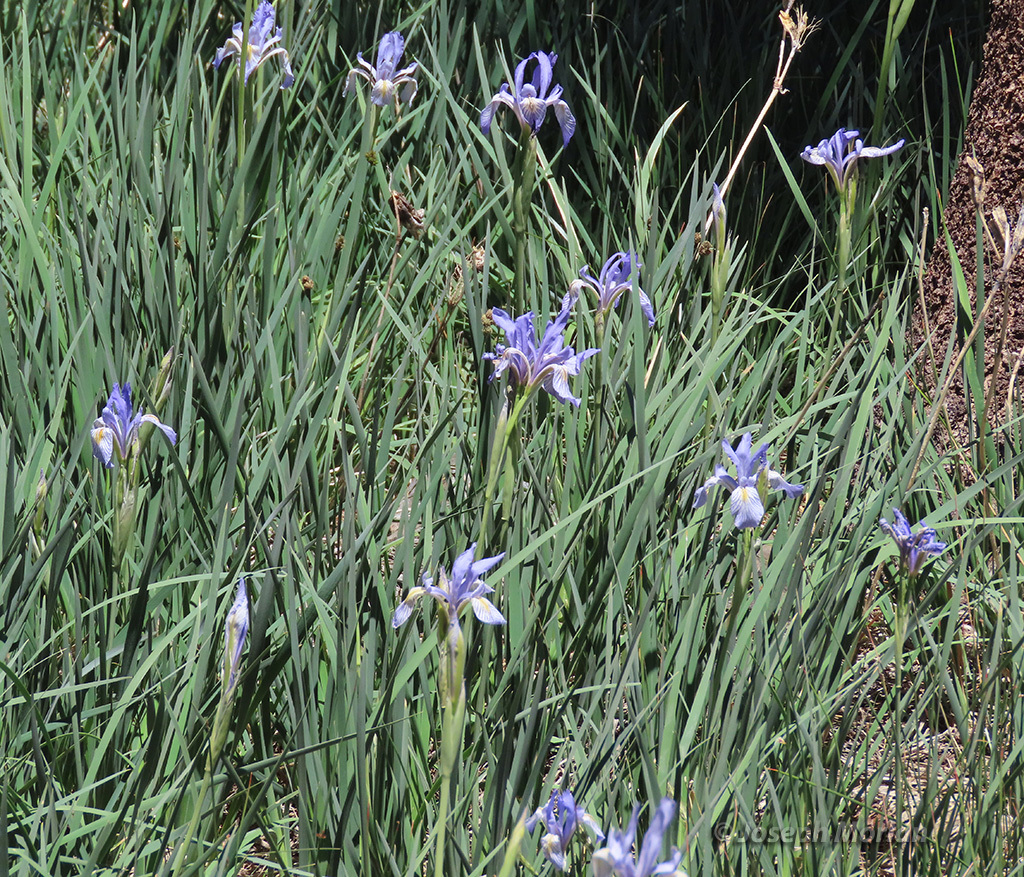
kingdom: Plantae
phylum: Tracheophyta
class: Liliopsida
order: Asparagales
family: Iridaceae
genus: Iris
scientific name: Iris missouriensis
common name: Rocky mountain iris
